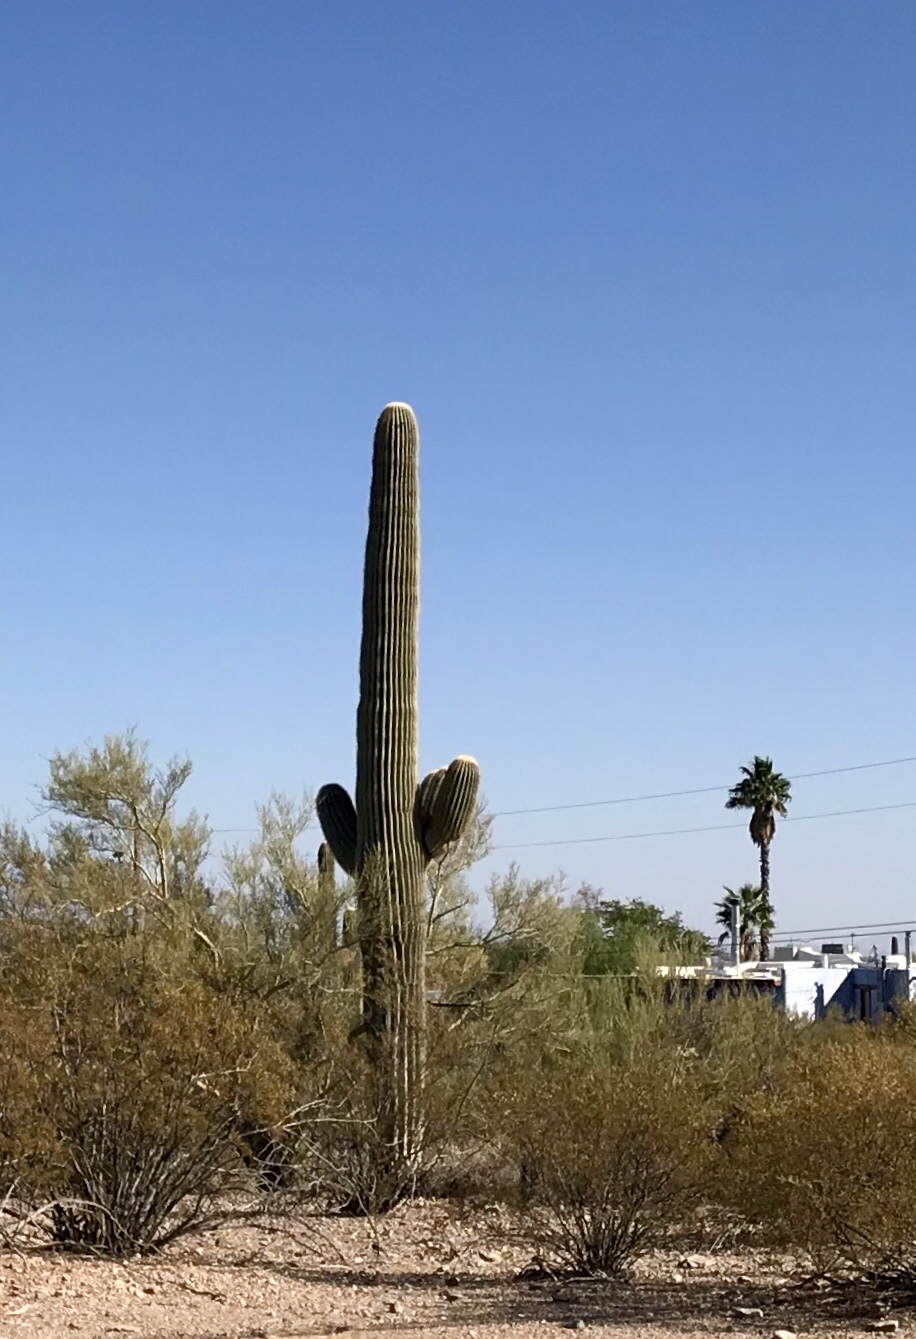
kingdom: Plantae
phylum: Tracheophyta
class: Magnoliopsida
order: Caryophyllales
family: Cactaceae
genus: Carnegiea
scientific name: Carnegiea gigantea
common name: Saguaro
